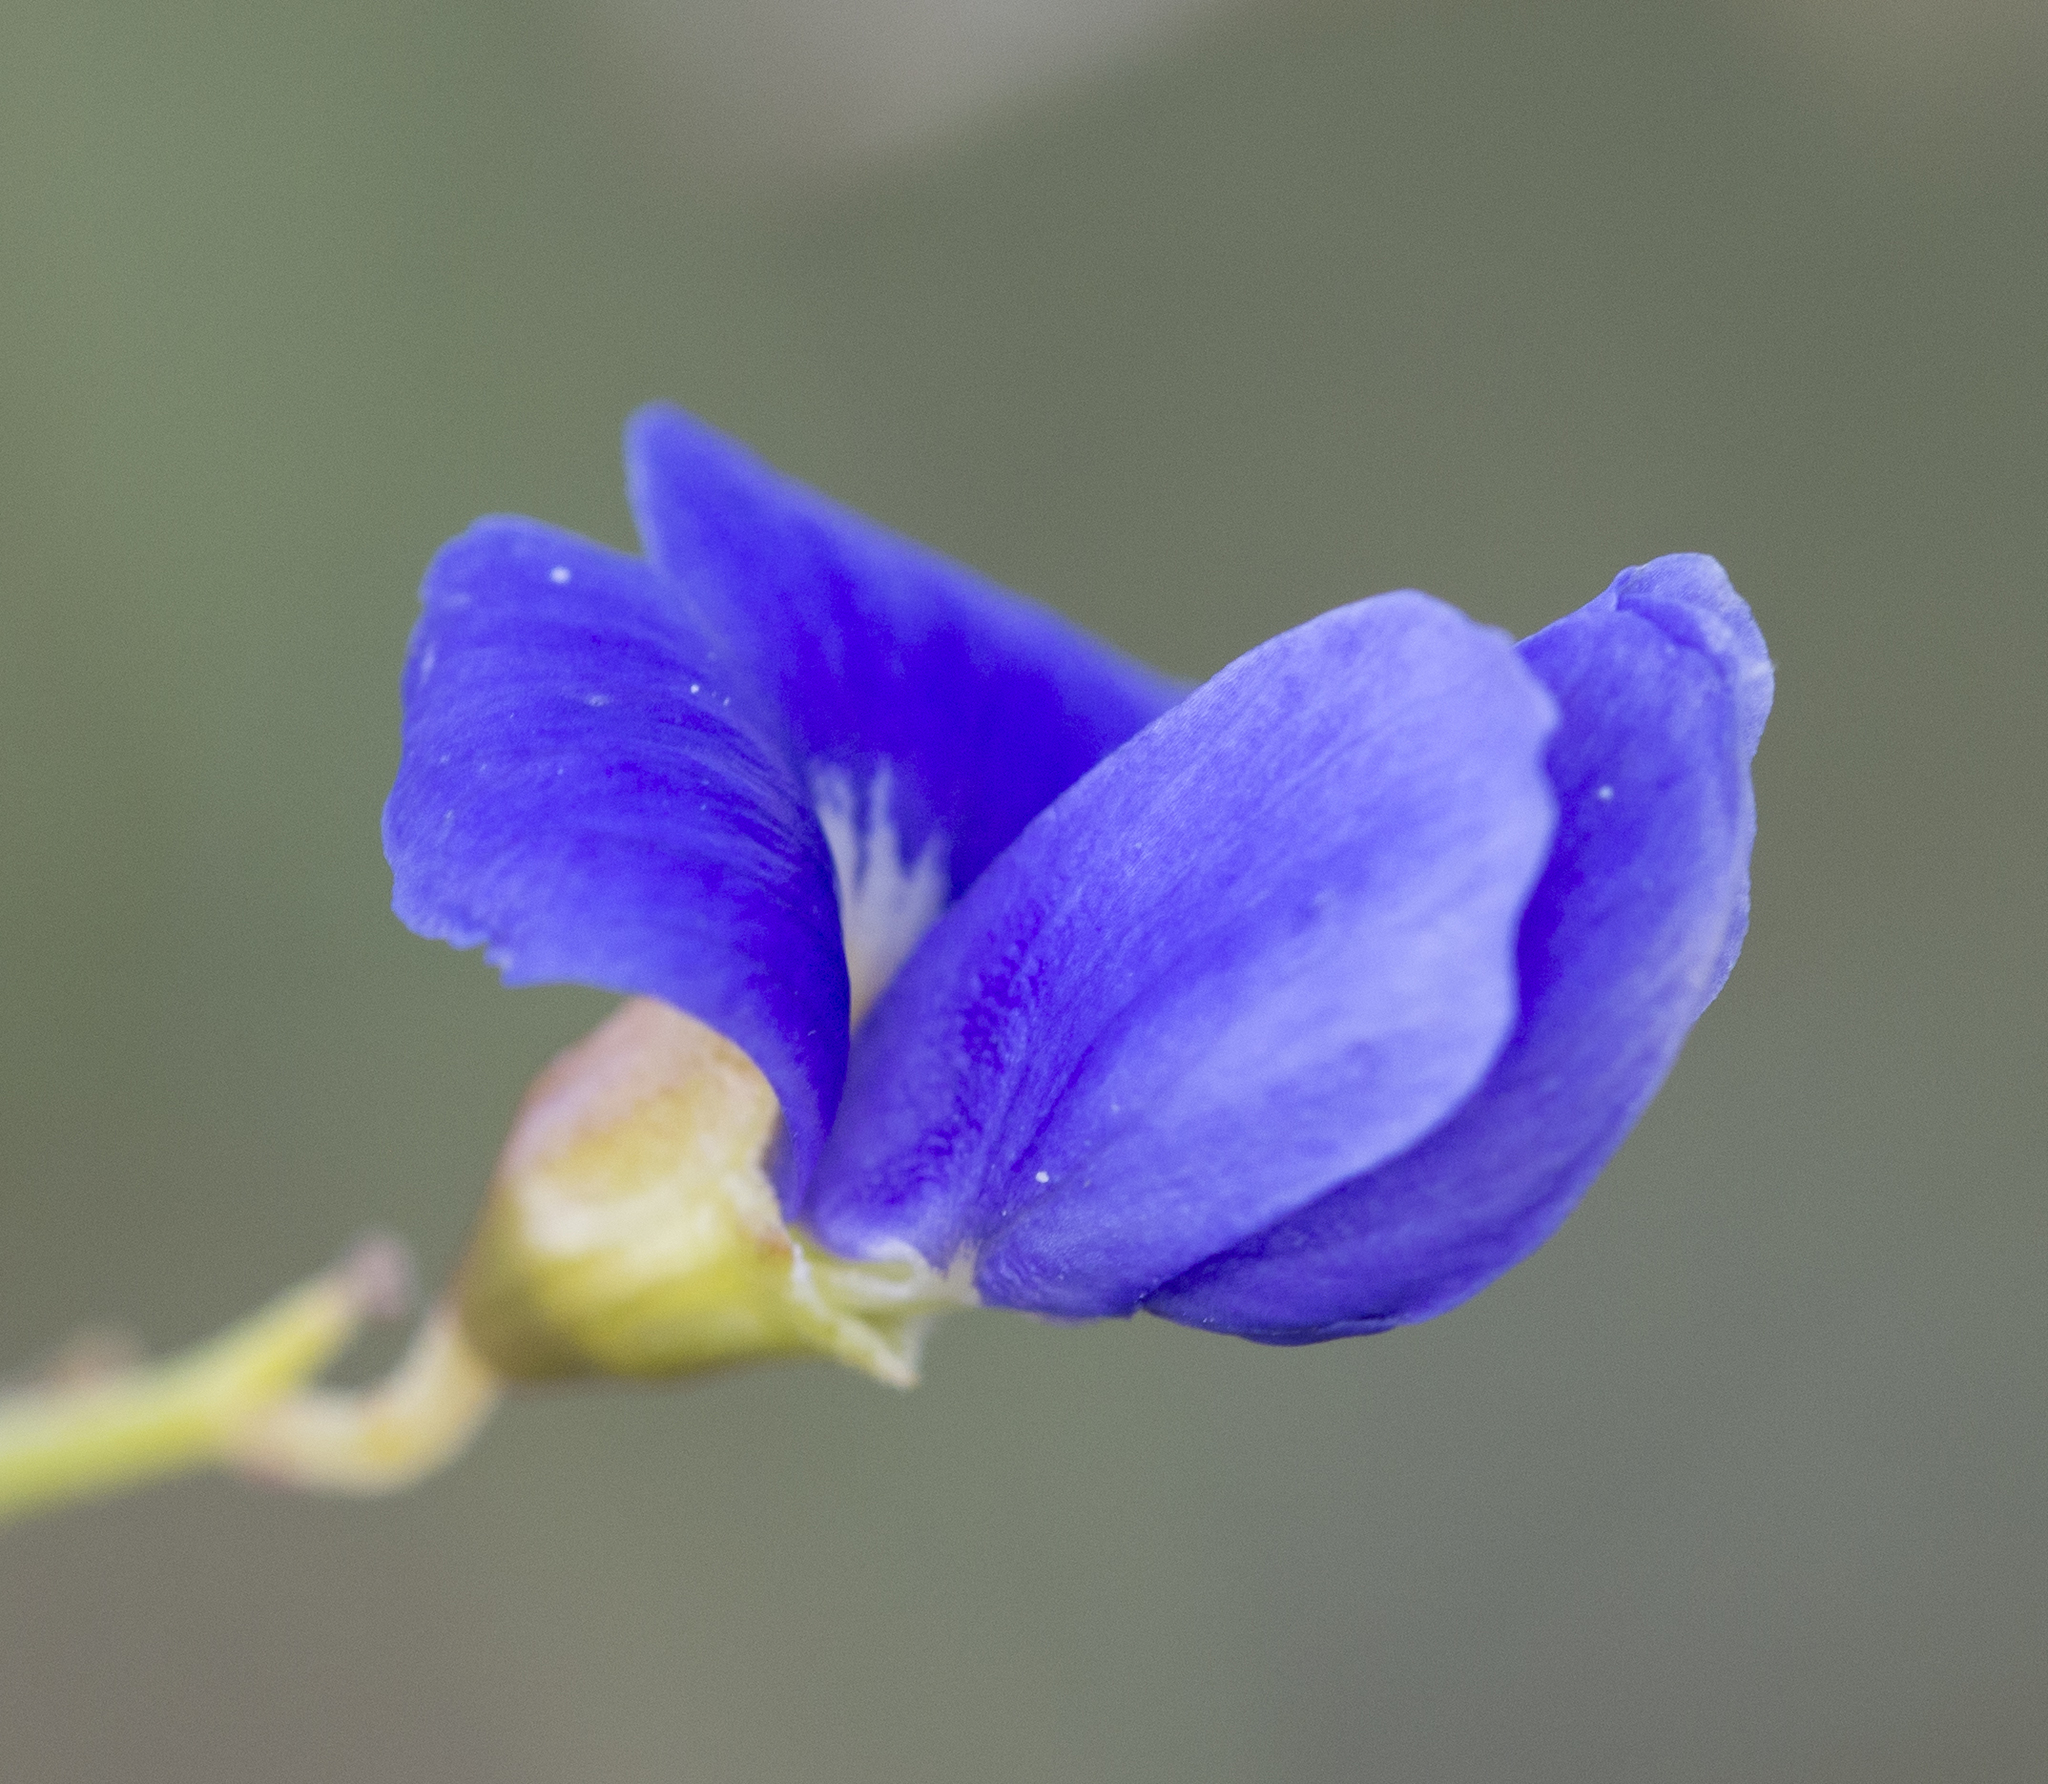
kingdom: Plantae
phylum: Tracheophyta
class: Magnoliopsida
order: Fabales
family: Fabaceae
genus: Psorothamnus
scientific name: Psorothamnus schottii
